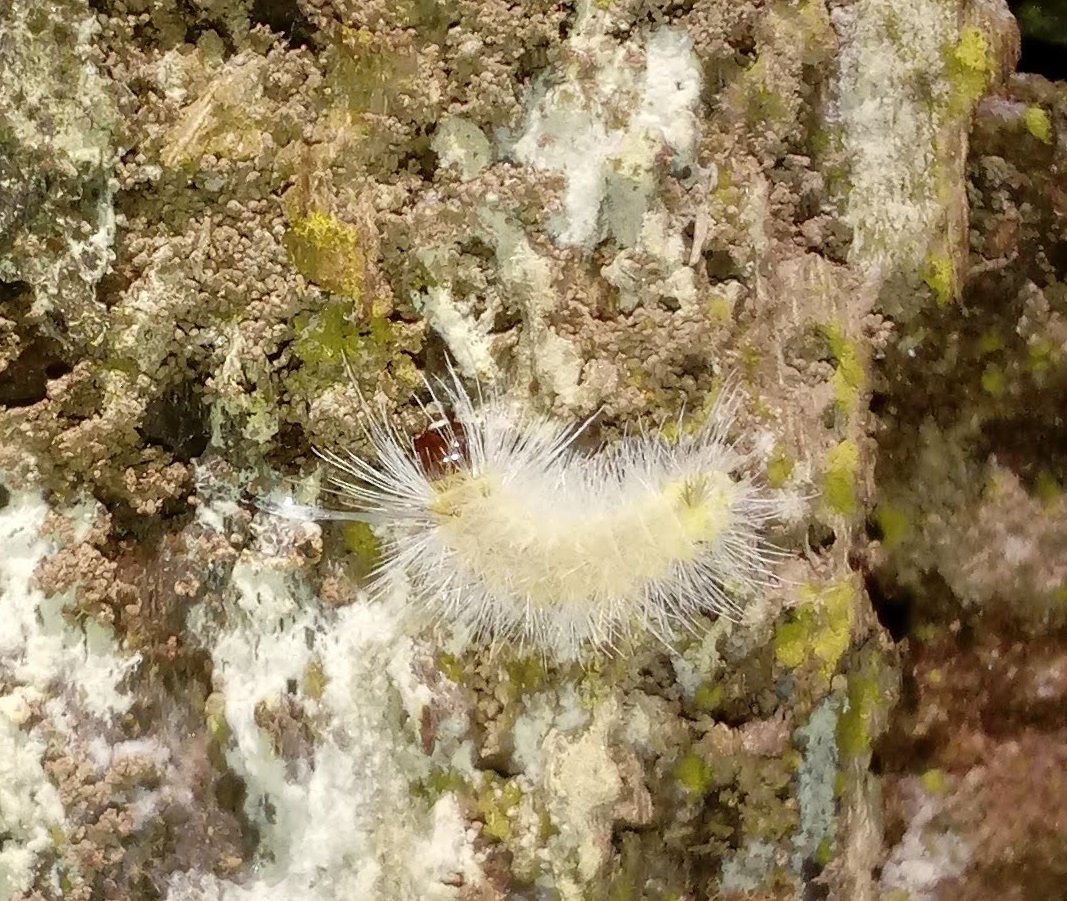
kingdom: Animalia
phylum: Arthropoda
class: Insecta
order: Lepidoptera
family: Erebidae
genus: Halysidota
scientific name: Halysidota tessellaris
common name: Banded tussock moth
